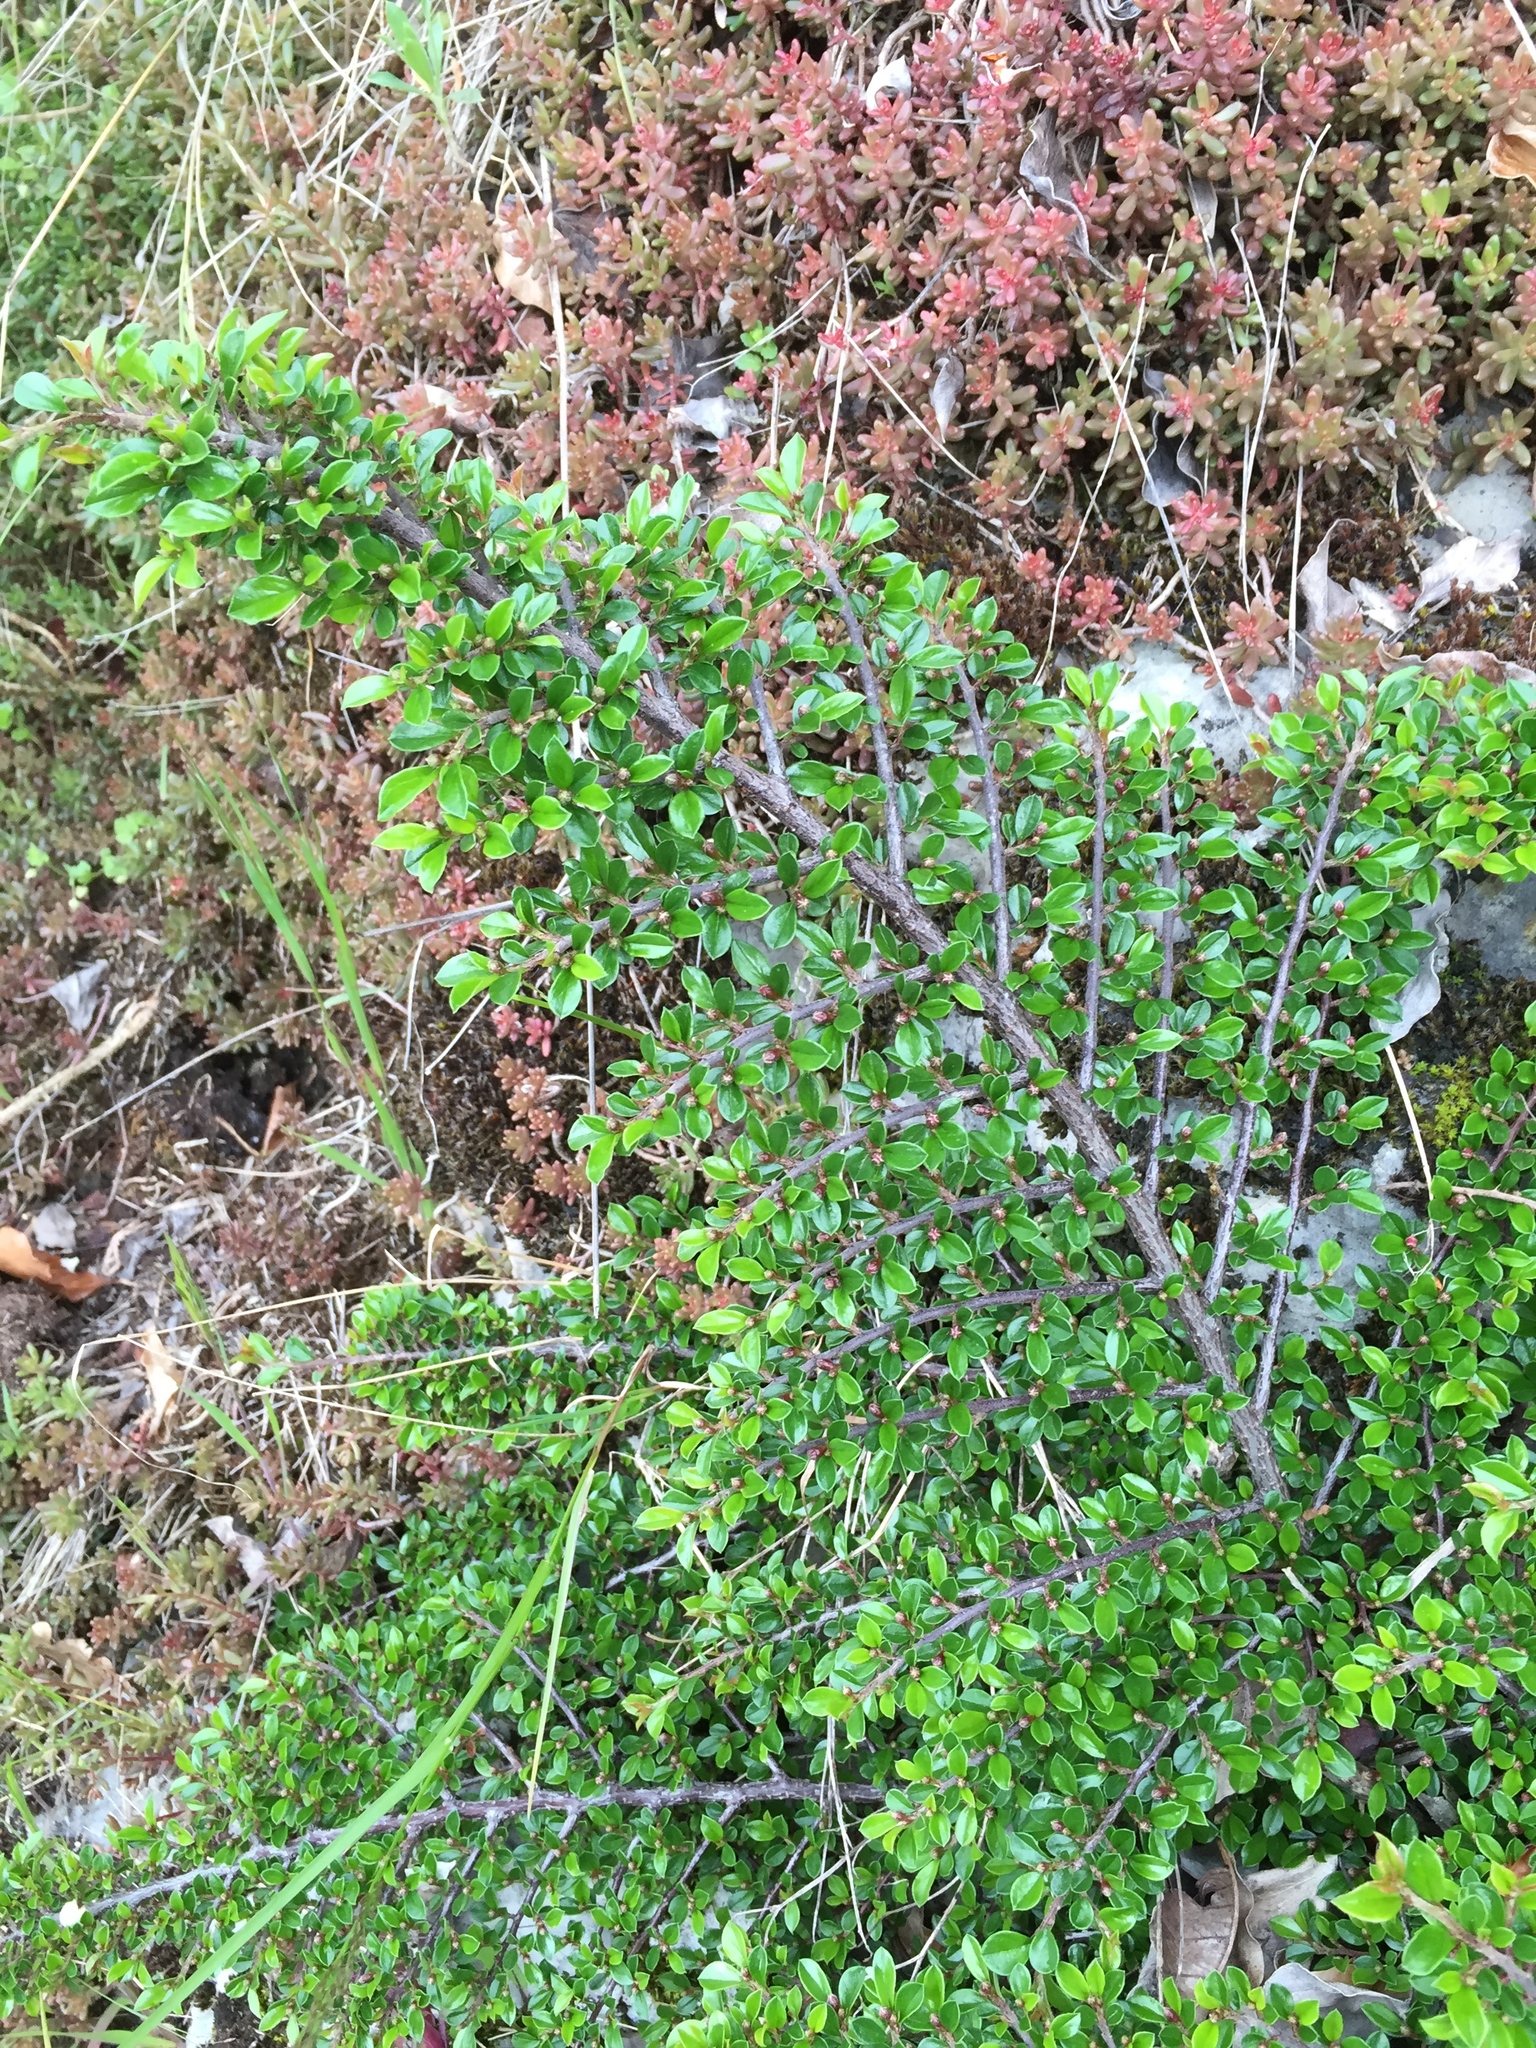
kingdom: Plantae
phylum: Tracheophyta
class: Magnoliopsida
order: Rosales
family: Rosaceae
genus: Cotoneaster
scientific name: Cotoneaster horizontalis
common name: Wall cotoneaster
